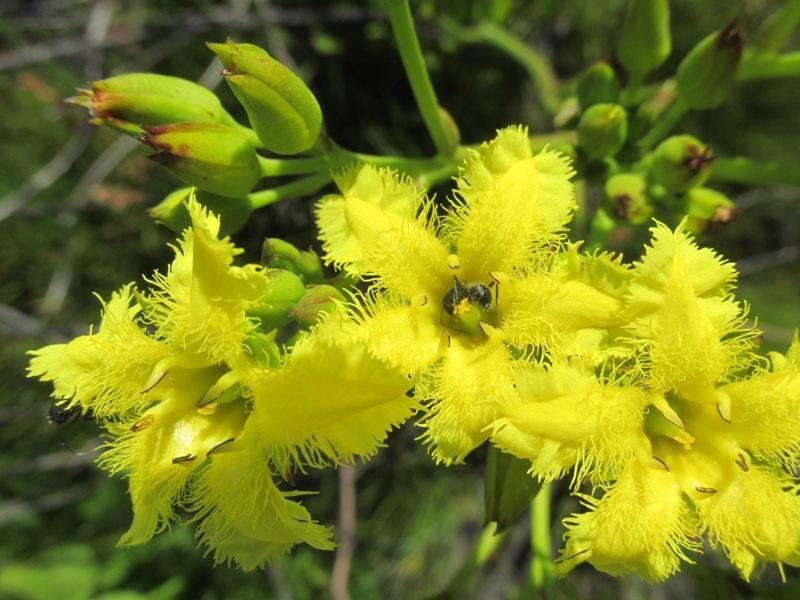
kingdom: Animalia
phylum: Arthropoda
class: Insecta
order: Hymenoptera
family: Formicidae
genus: Camponotus
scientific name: Camponotus niveosetosus
